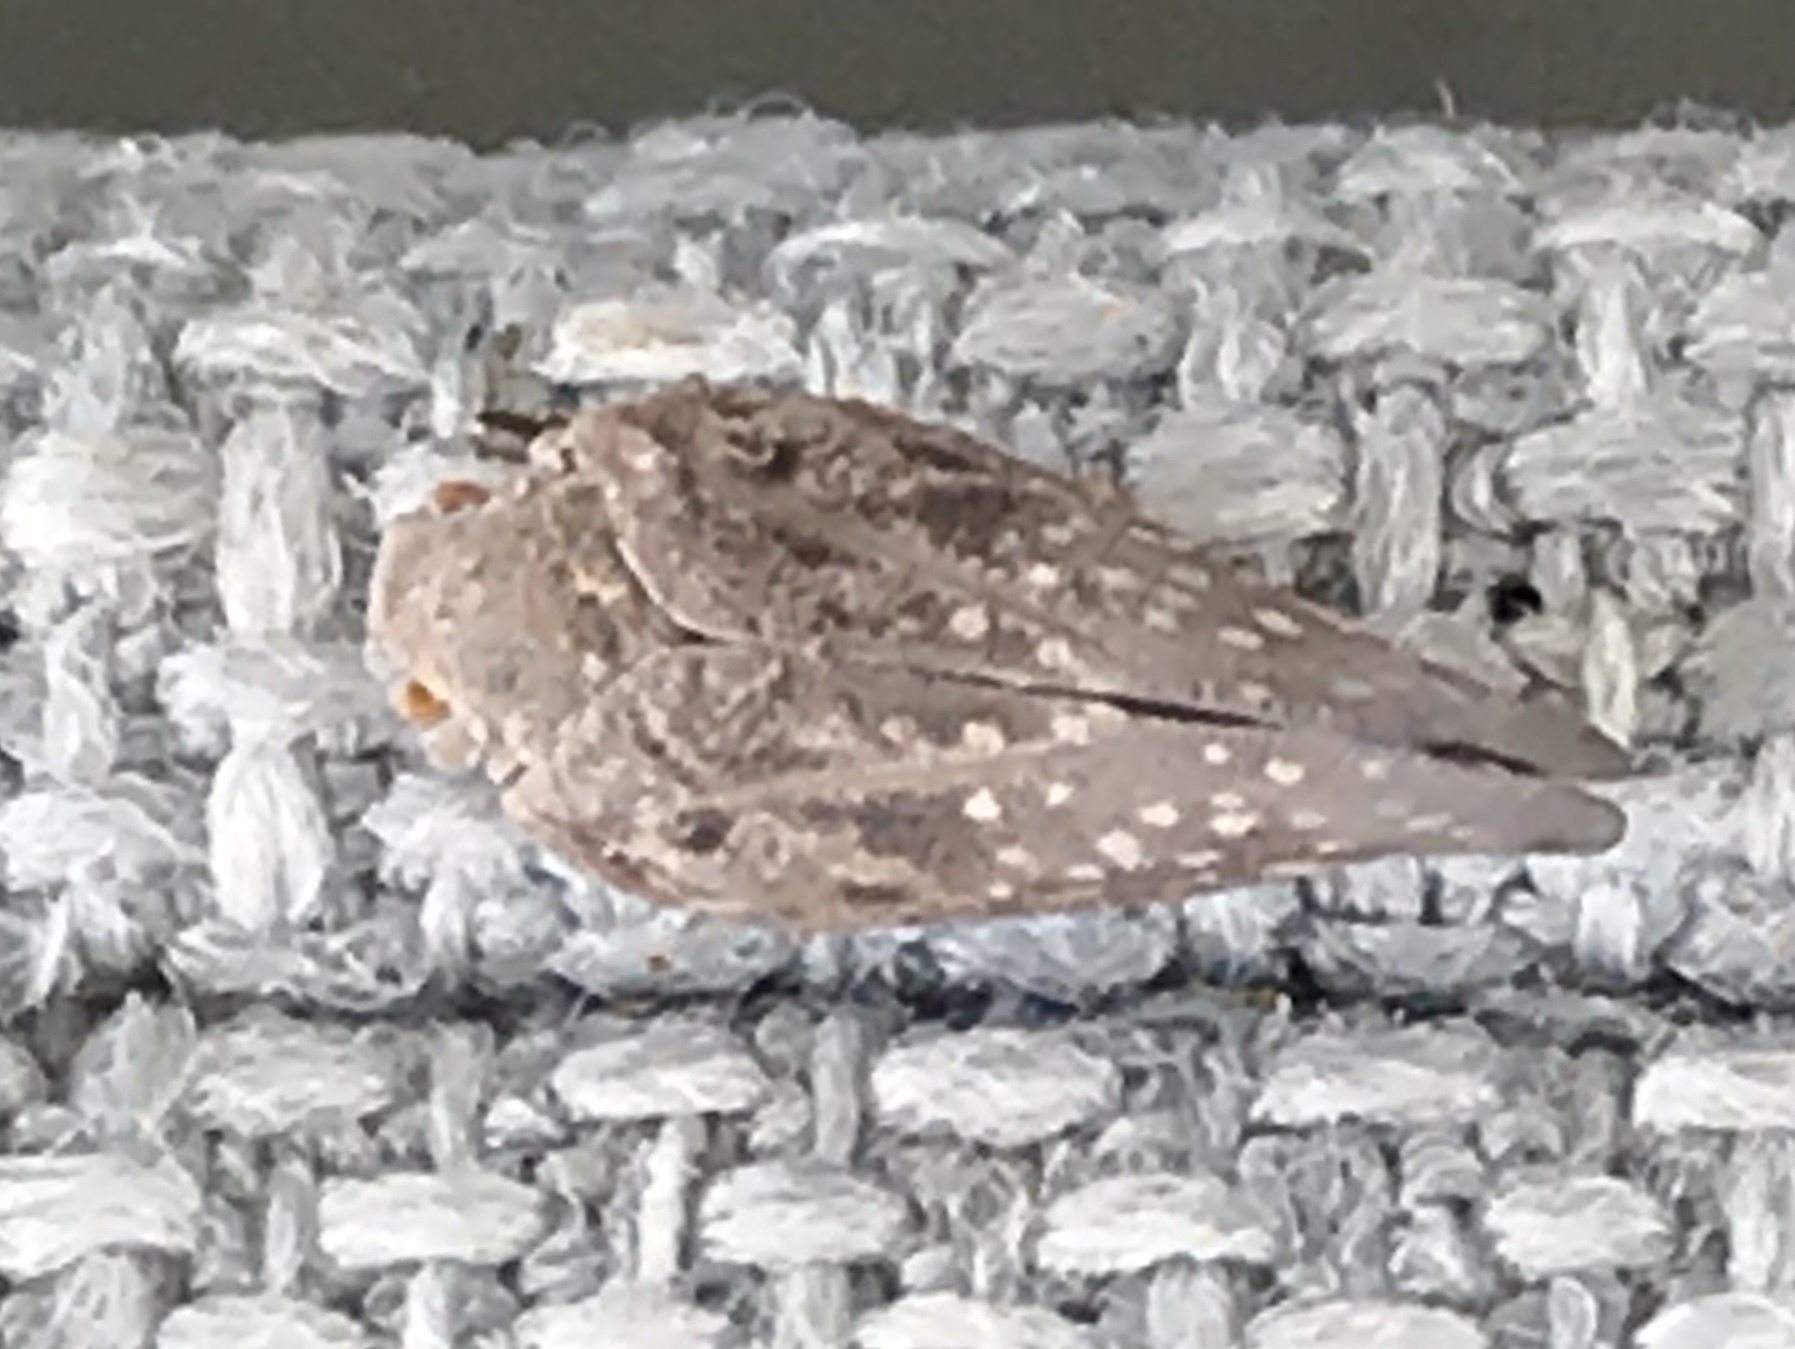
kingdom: Animalia
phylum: Arthropoda
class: Insecta
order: Hemiptera
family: Flatidae
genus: Metcalfa
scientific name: Metcalfa pruinosa
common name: Citrus flatid planthopper
